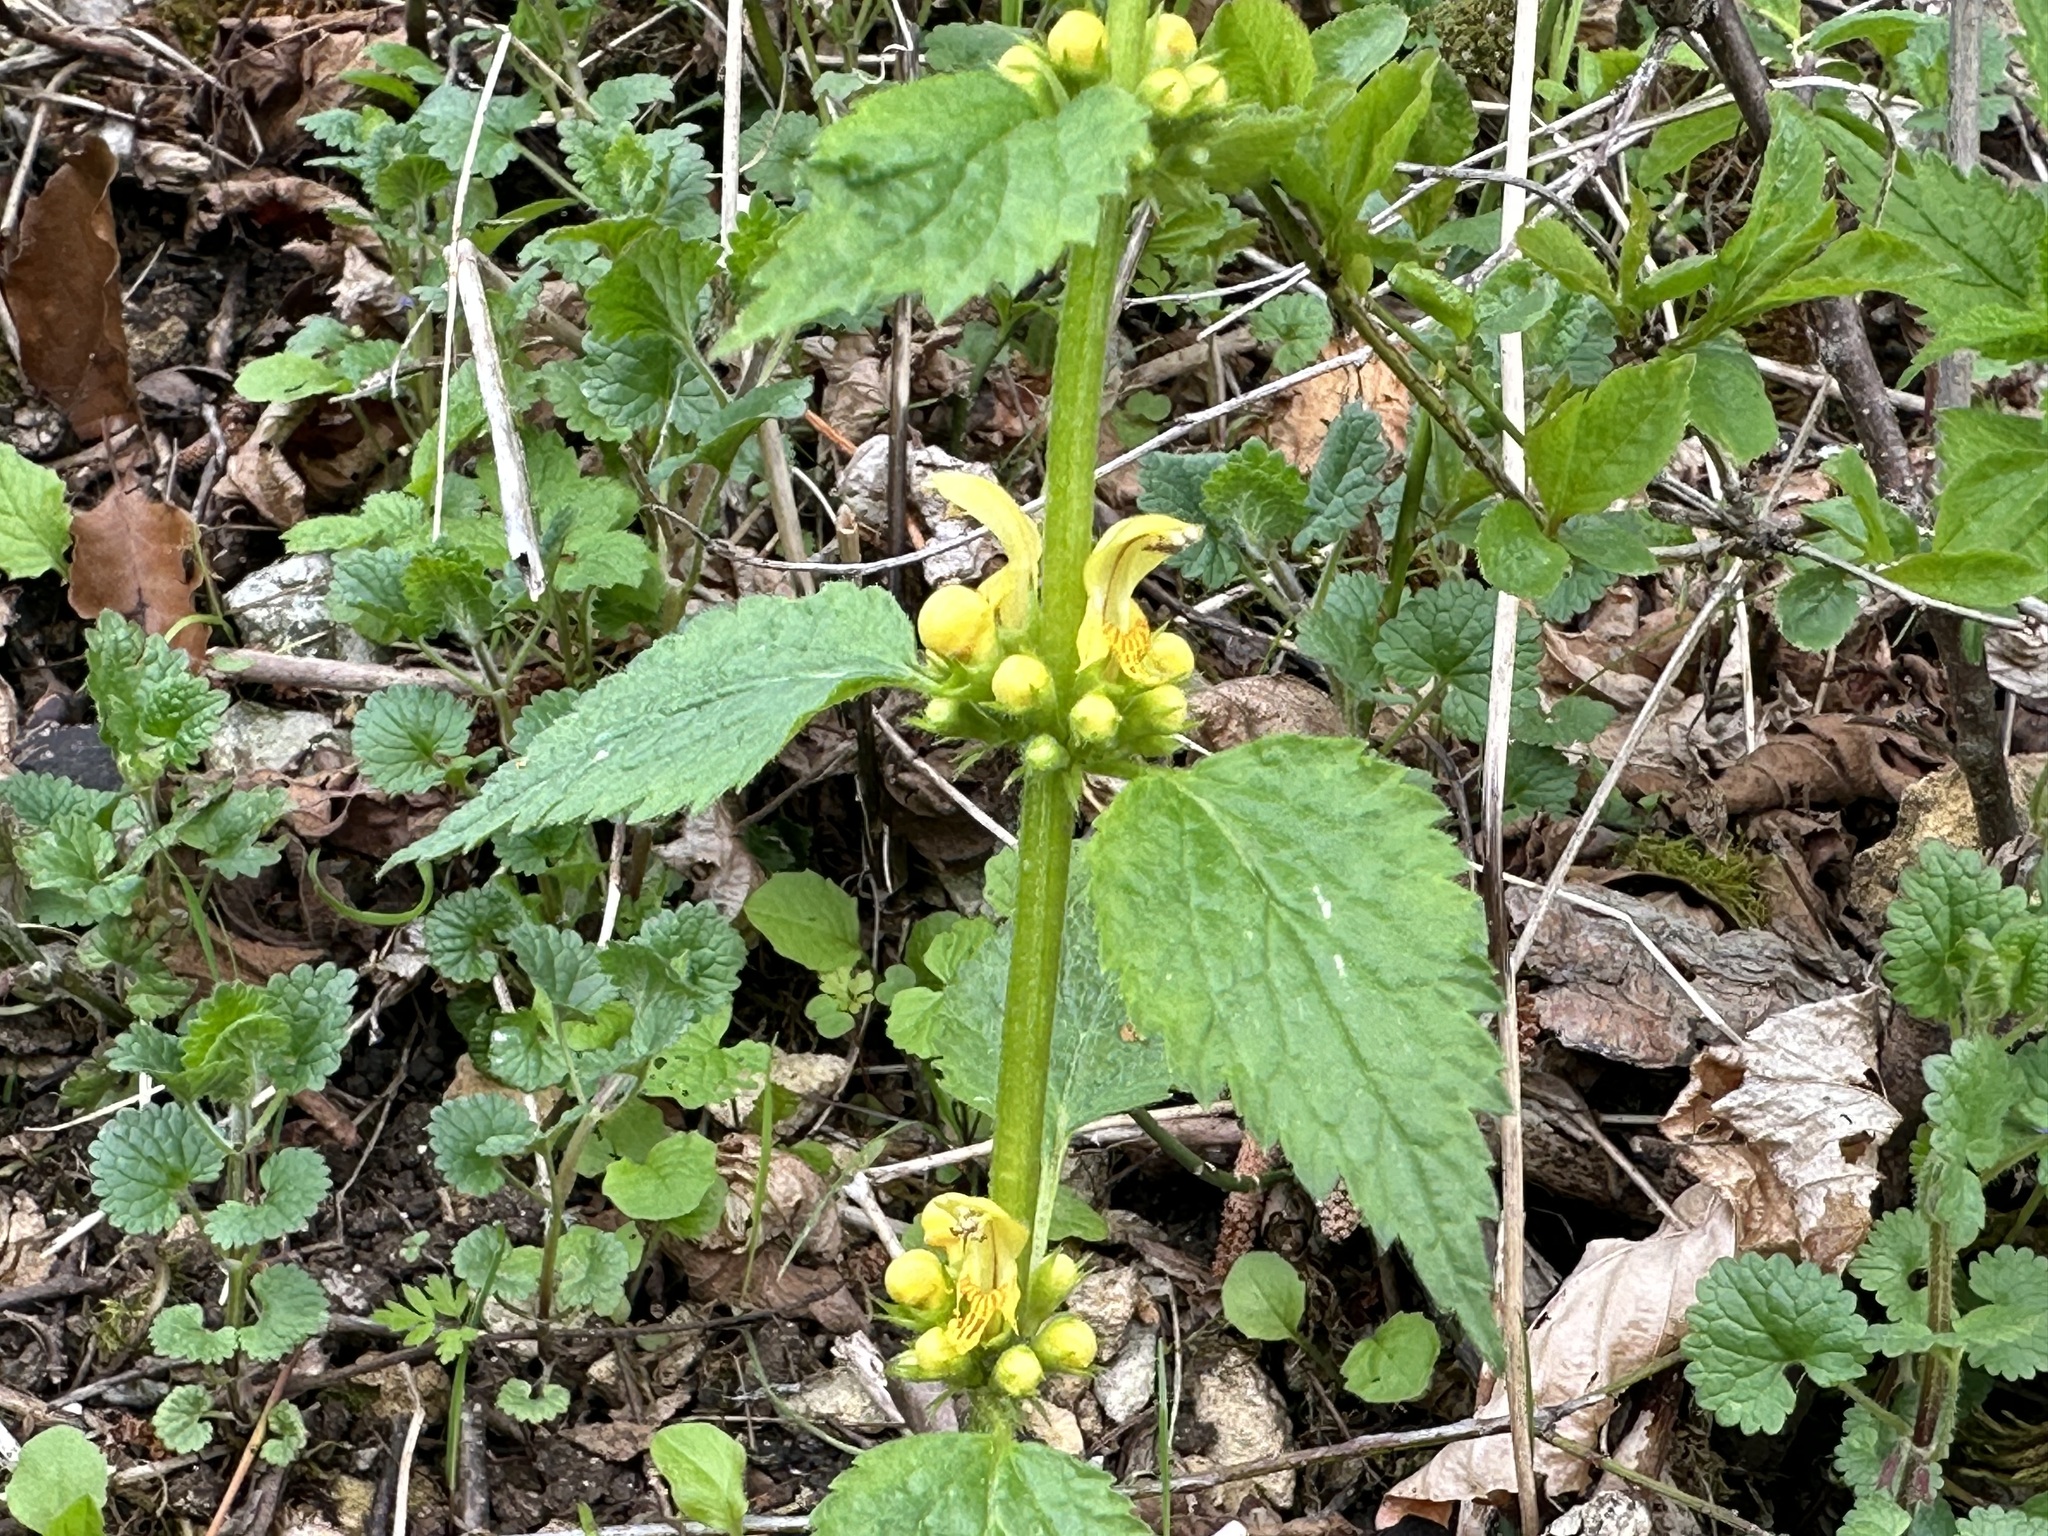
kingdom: Plantae
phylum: Tracheophyta
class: Magnoliopsida
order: Lamiales
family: Lamiaceae
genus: Lamium
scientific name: Lamium galeobdolon
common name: Yellow archangel
